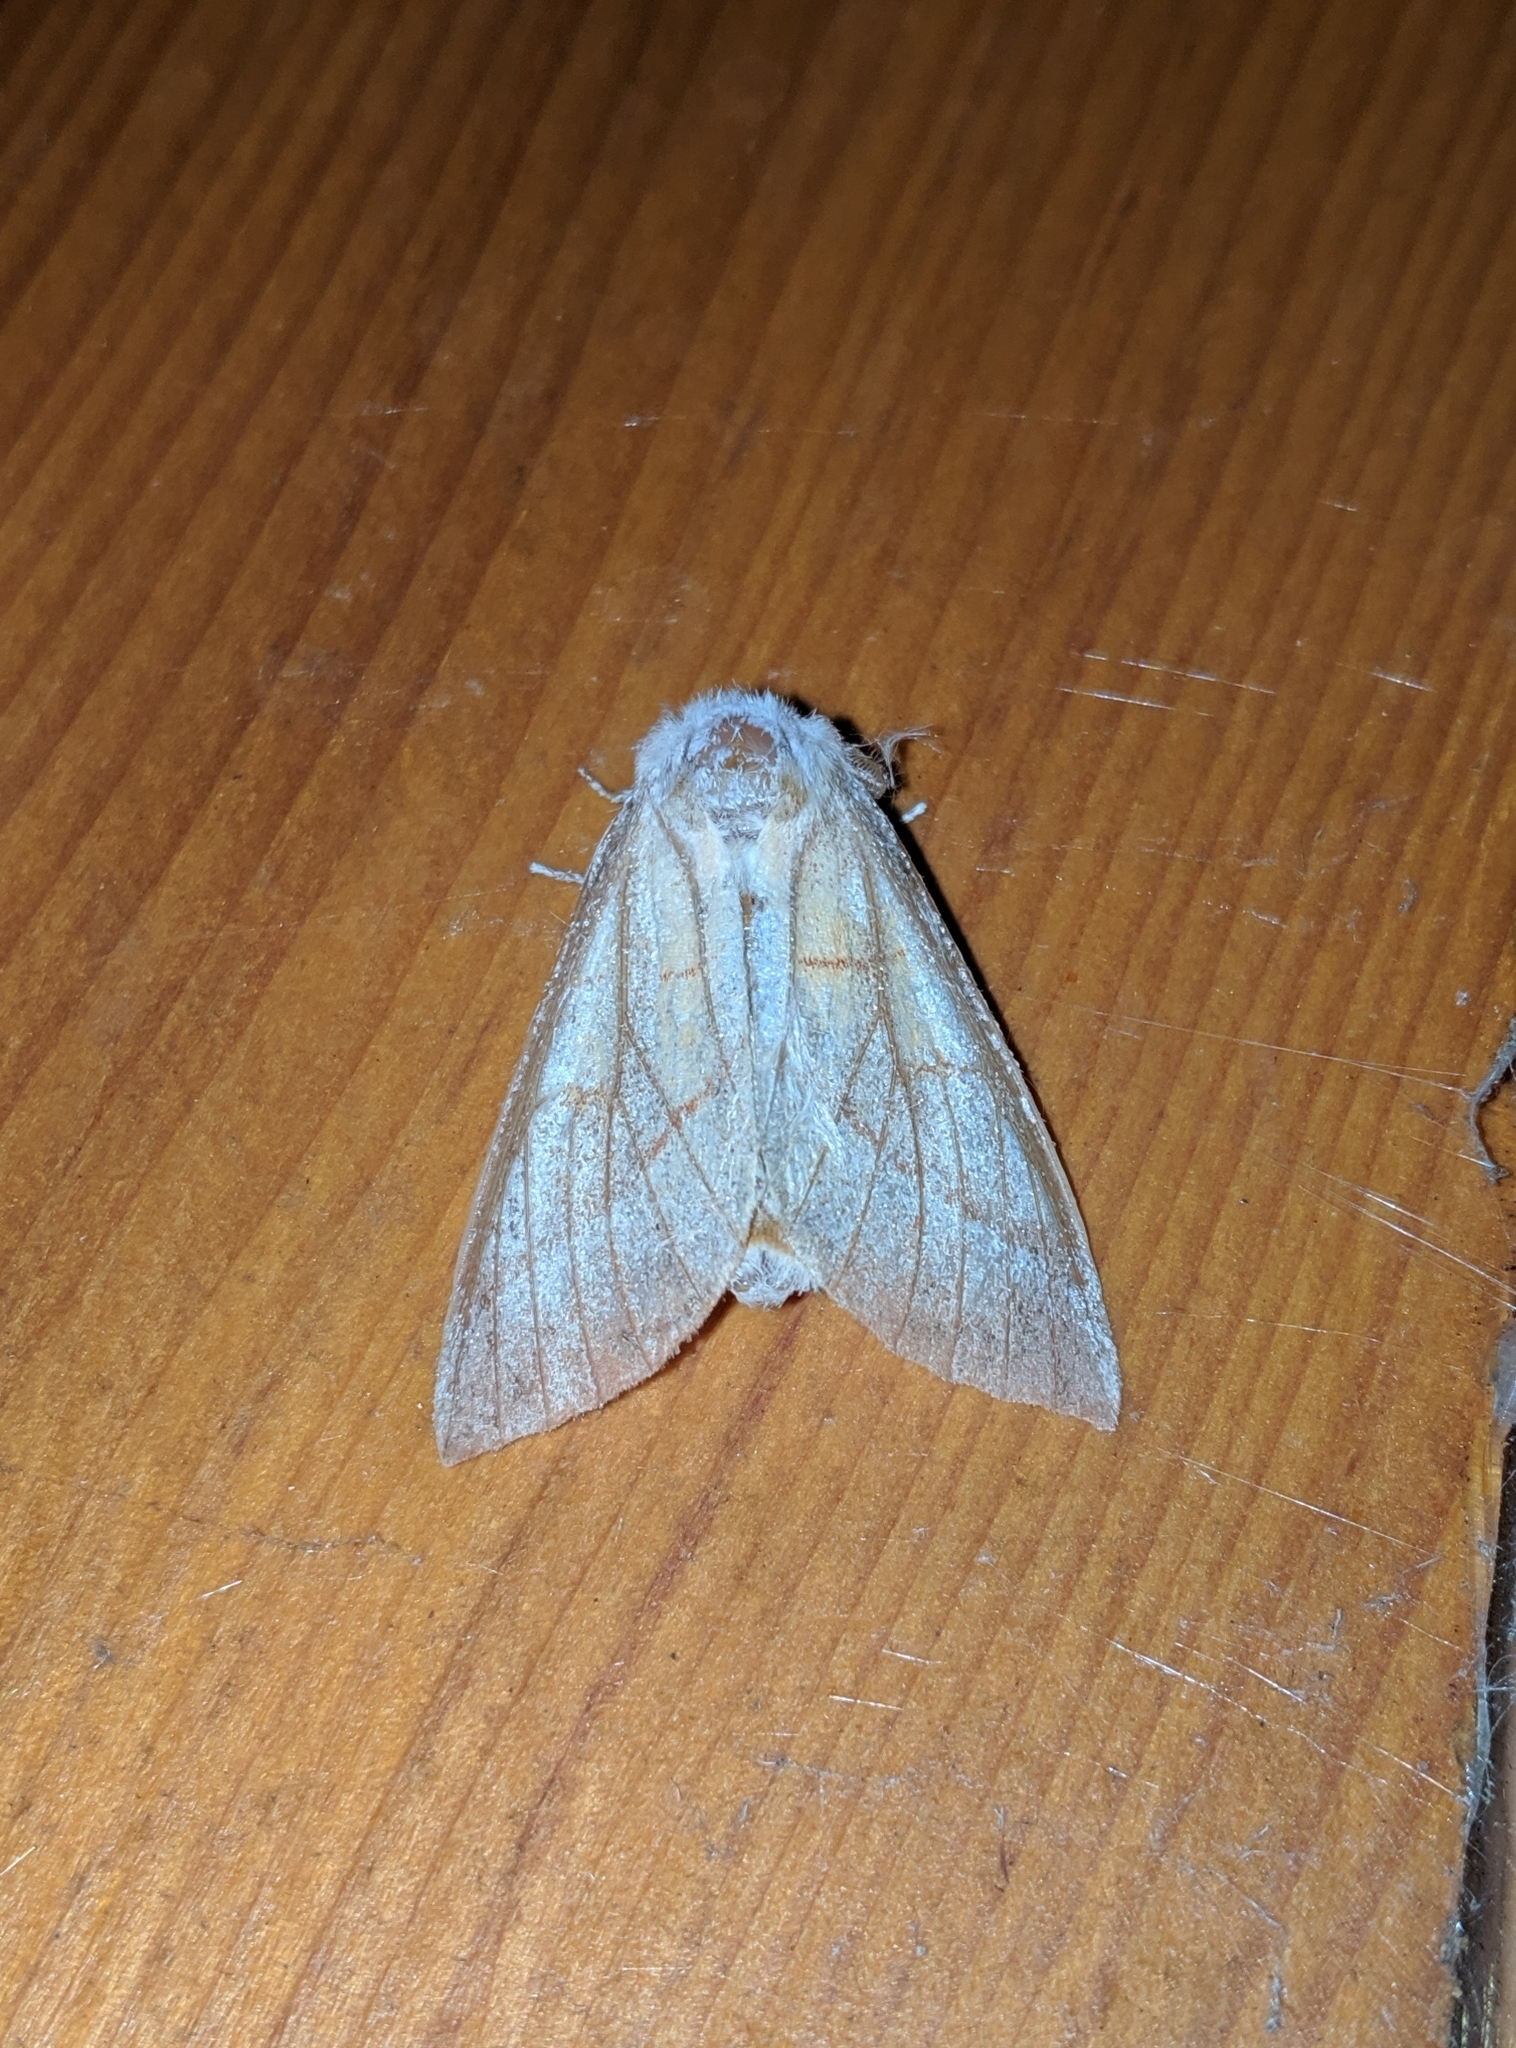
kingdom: Animalia
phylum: Arthropoda
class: Insecta
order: Lepidoptera
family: Notodontidae
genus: Nadata
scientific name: Nadata gibbosa
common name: White-dotted prominent
